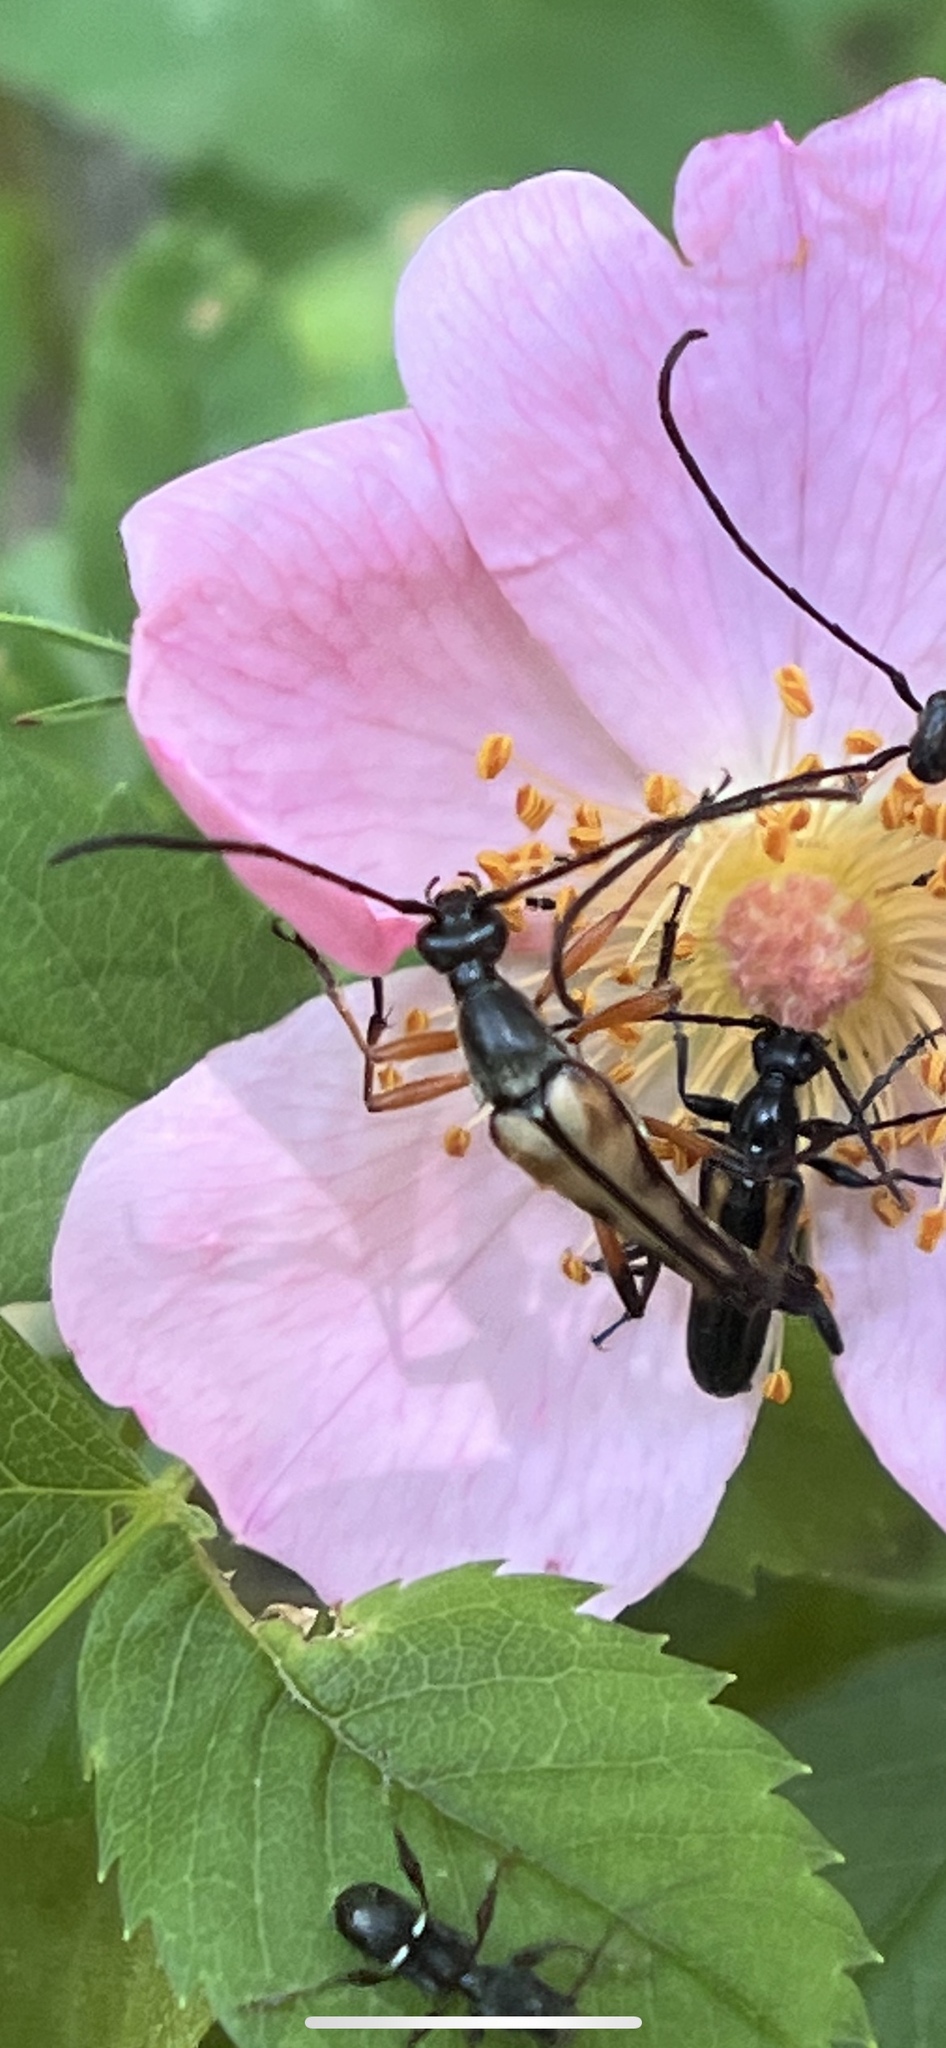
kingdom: Animalia
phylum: Arthropoda
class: Insecta
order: Coleoptera
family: Cerambycidae
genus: Strangalia
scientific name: Strangalia famelica
